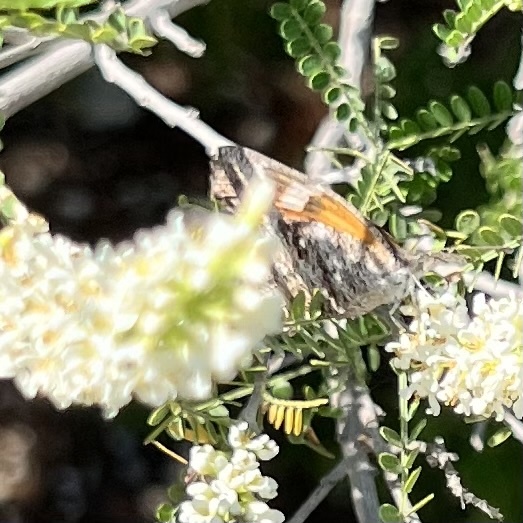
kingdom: Animalia
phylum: Arthropoda
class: Insecta
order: Lepidoptera
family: Nymphalidae
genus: Libytheana
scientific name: Libytheana carinenta
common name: American snout
